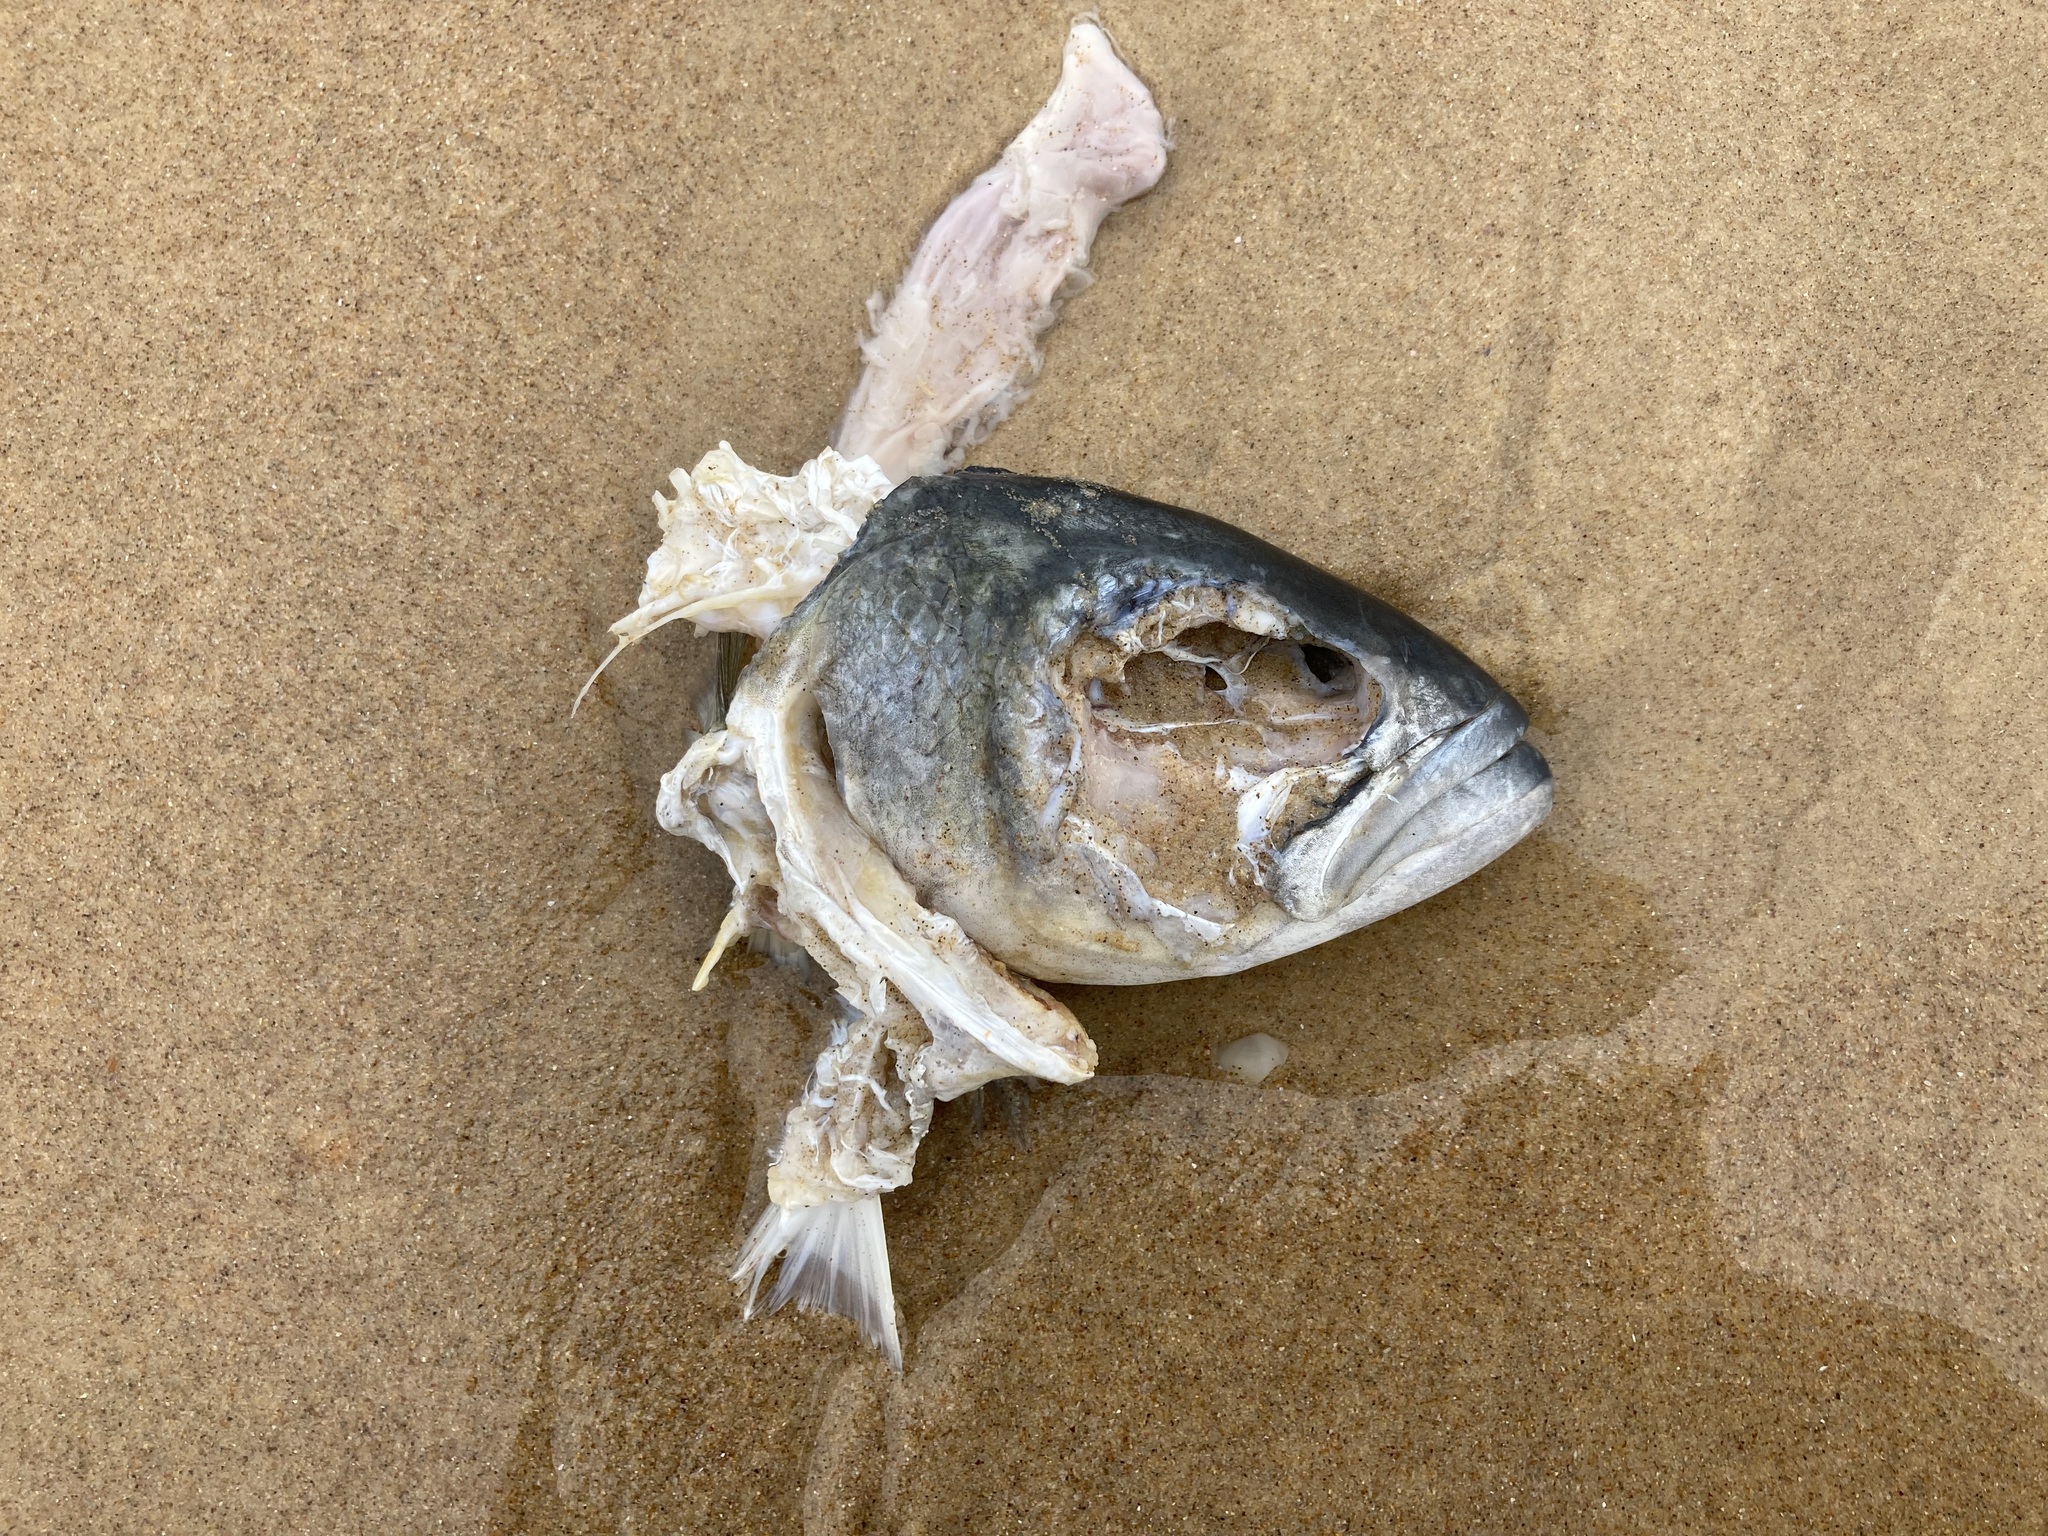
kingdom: Animalia
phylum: Chordata
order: Perciformes
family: Pomatomidae
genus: Pomatomus
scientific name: Pomatomus saltatrix
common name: Bluefish
